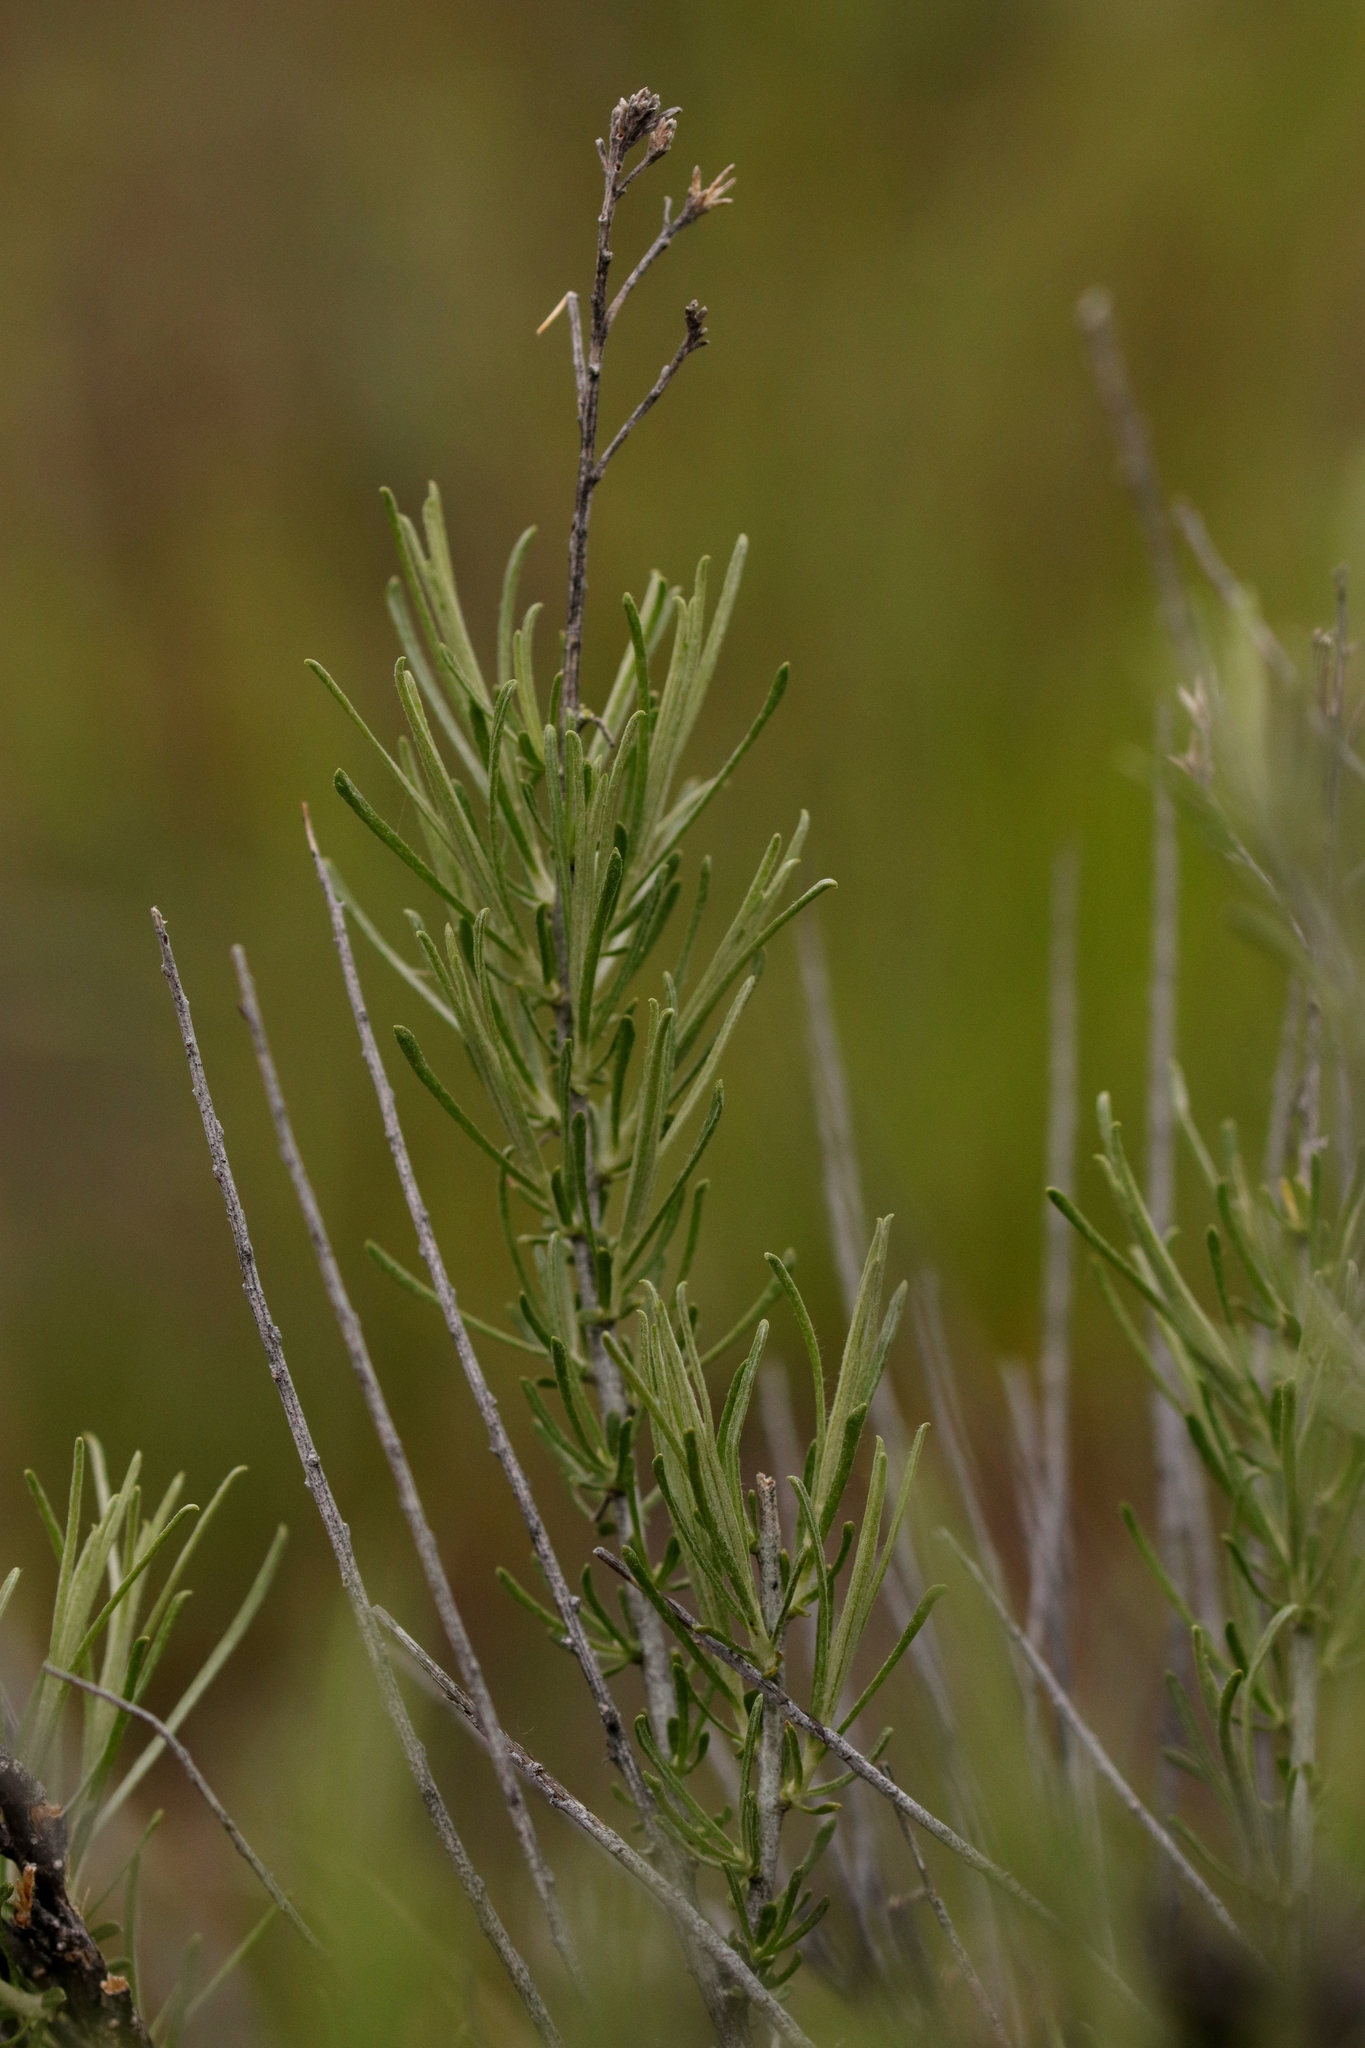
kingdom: Plantae
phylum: Tracheophyta
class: Magnoliopsida
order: Asterales
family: Asteraceae
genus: Ericameria
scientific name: Ericameria nauseosa
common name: Rubber rabbitbrush
